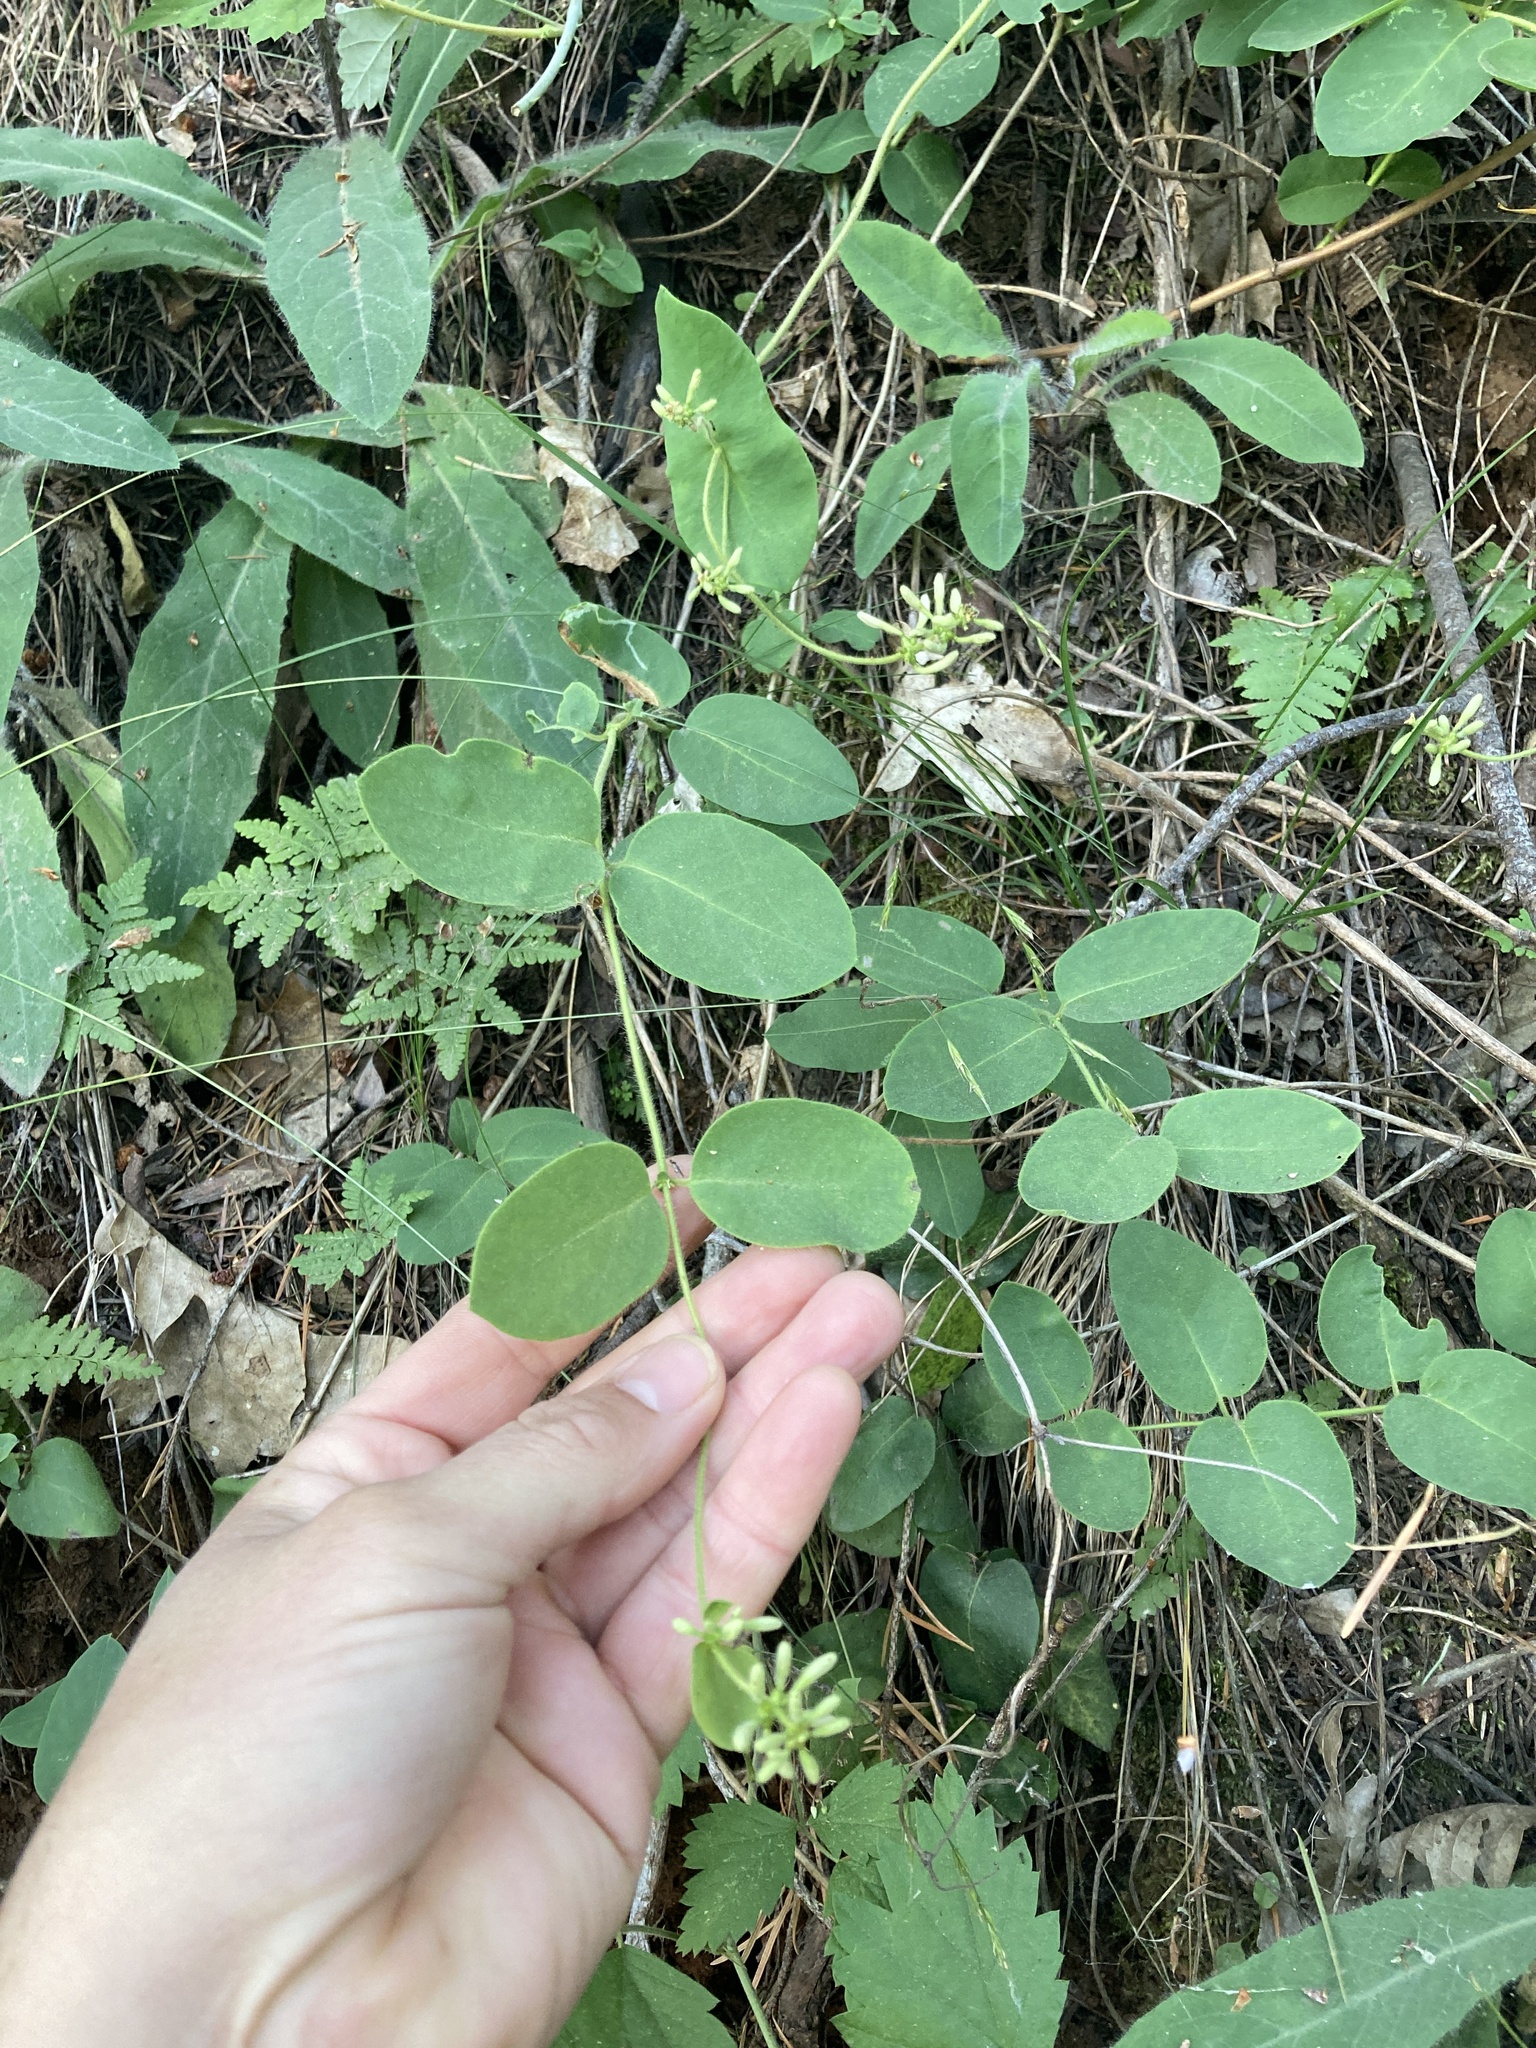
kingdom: Plantae
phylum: Tracheophyta
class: Magnoliopsida
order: Dipsacales
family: Caprifoliaceae
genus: Lonicera
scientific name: Lonicera hispidula
